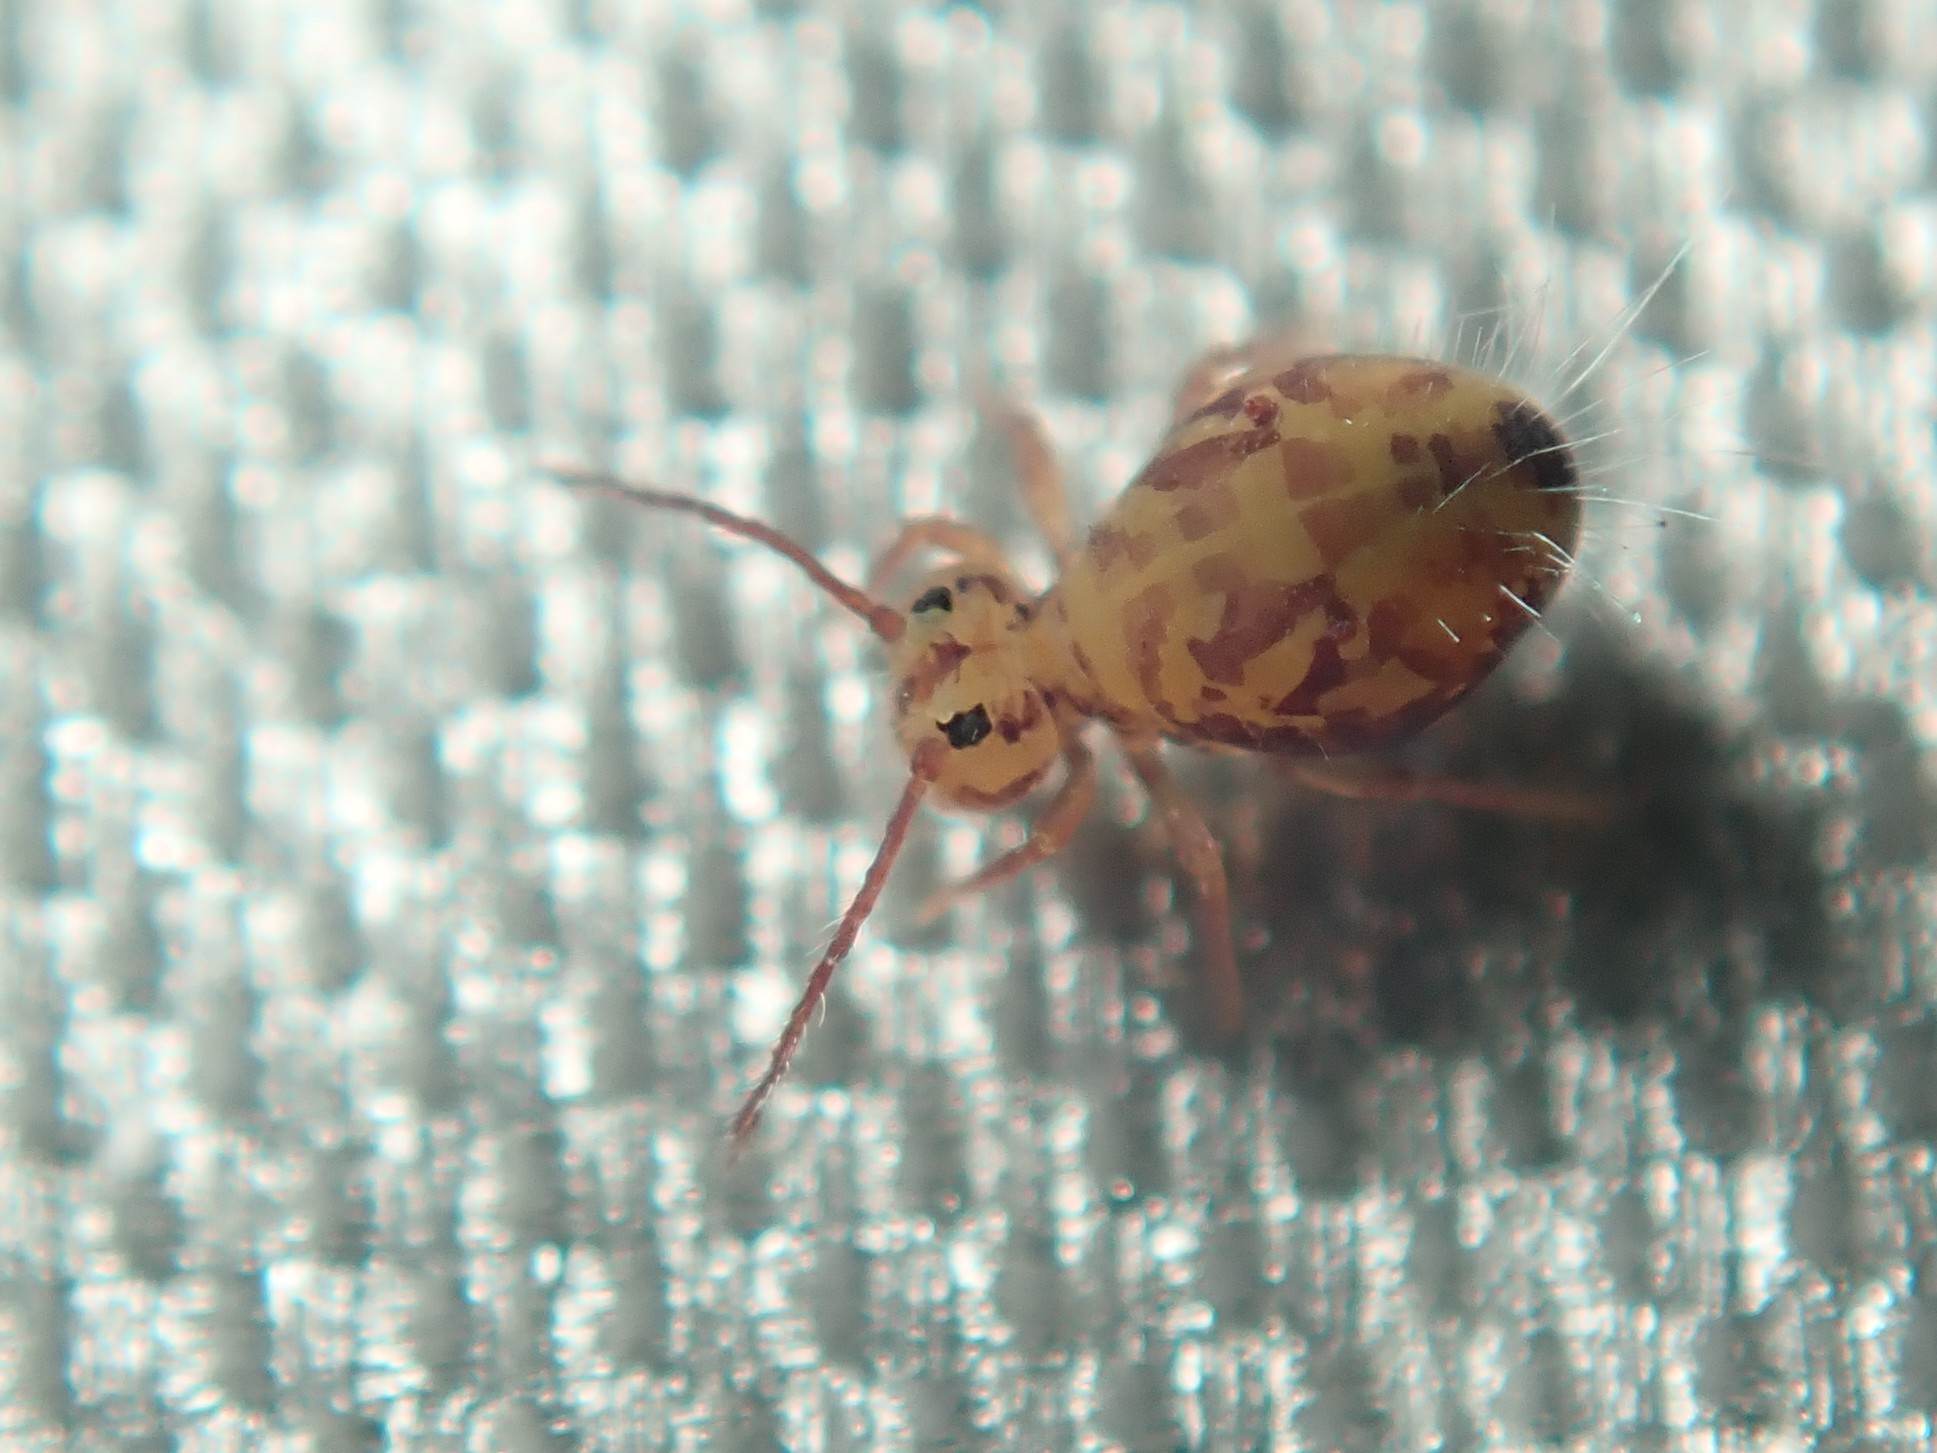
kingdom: Animalia
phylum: Arthropoda
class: Collembola
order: Symphypleona
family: Dicyrtomidae
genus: Dicyrtomina
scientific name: Dicyrtomina ornata
